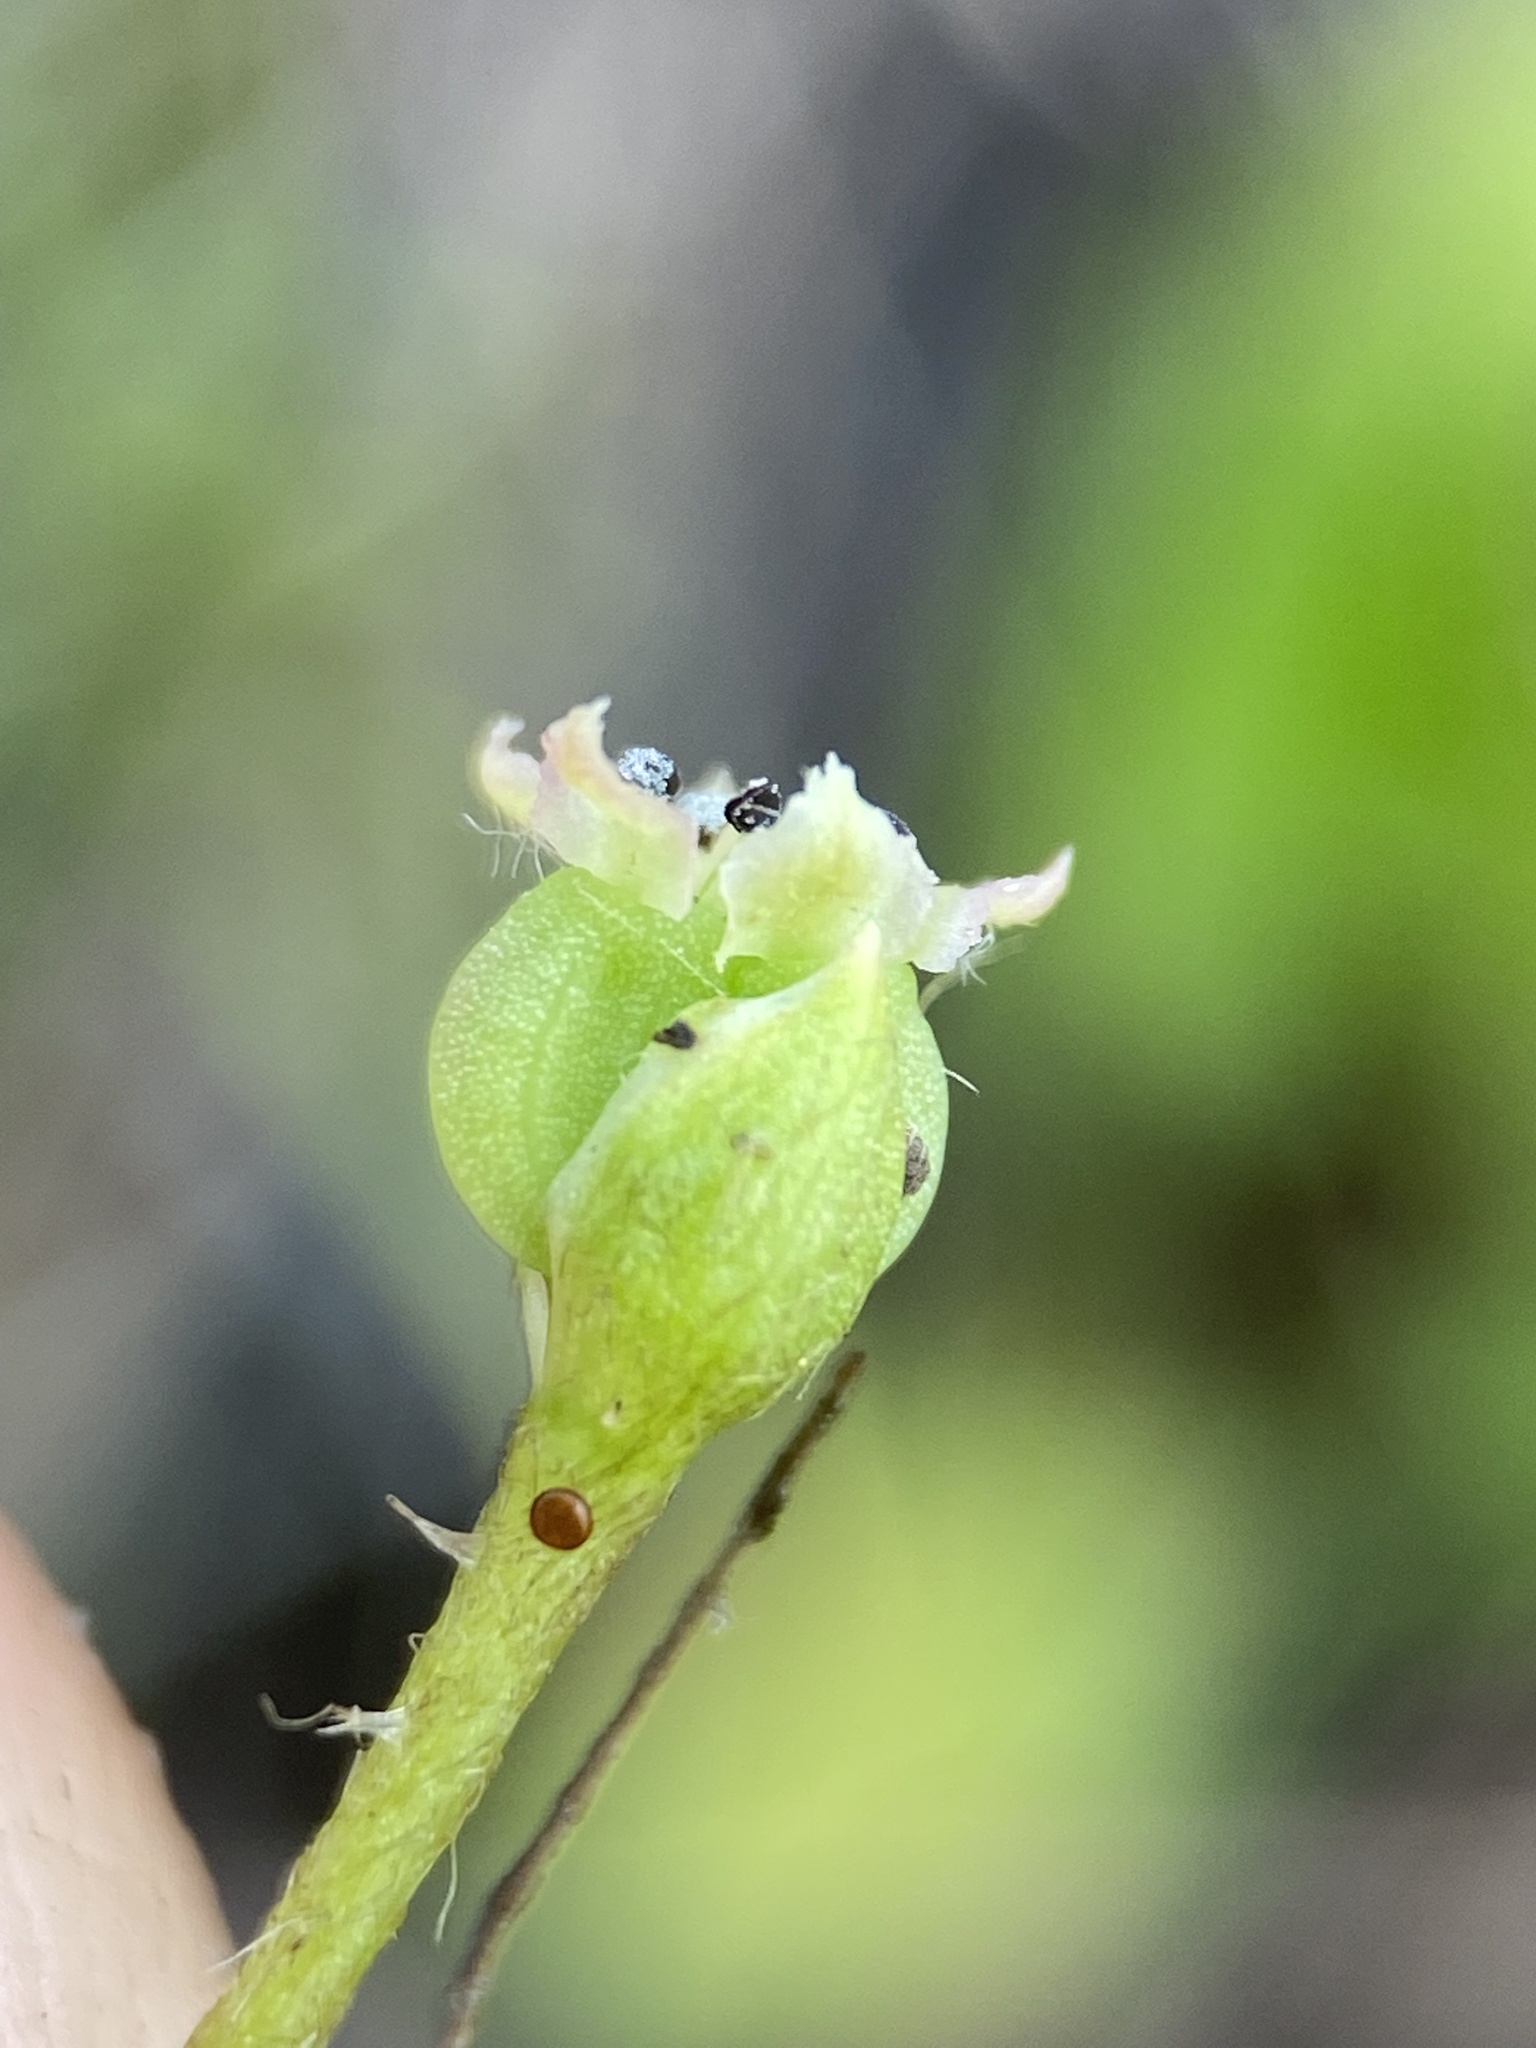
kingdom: Plantae
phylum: Tracheophyta
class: Magnoliopsida
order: Apiales
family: Apiaceae
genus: Centella
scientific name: Centella erecta
